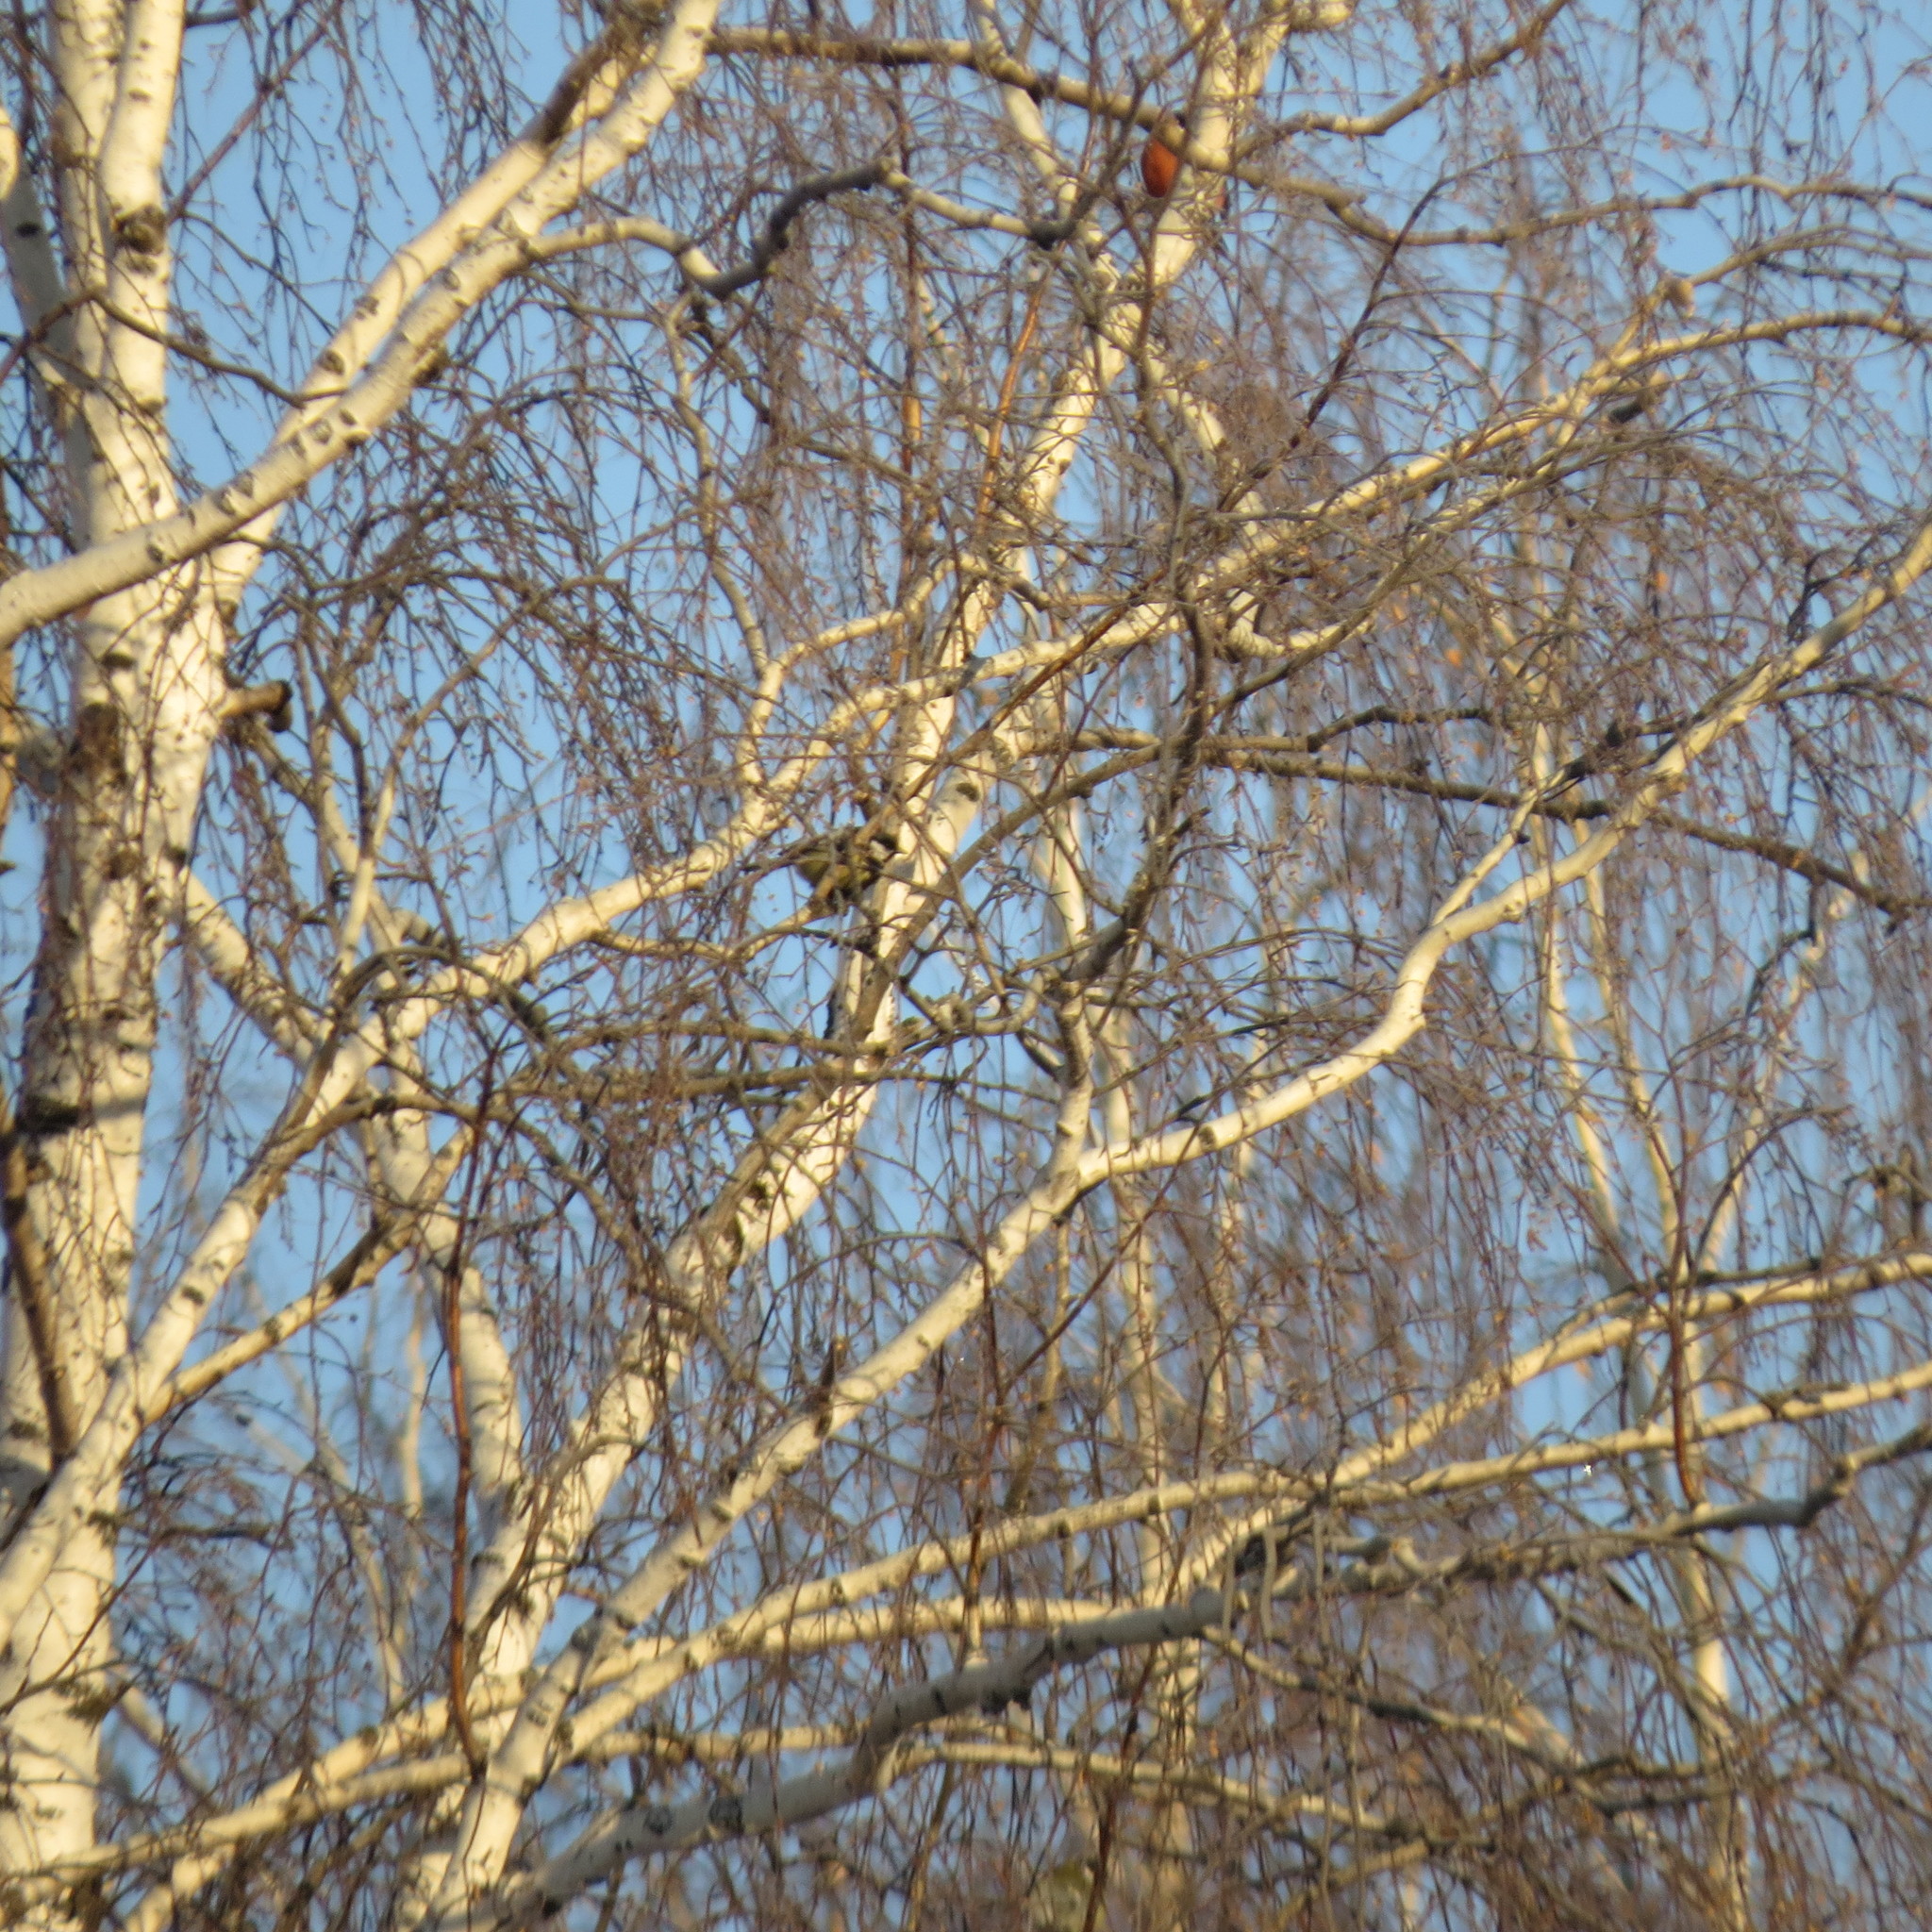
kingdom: Animalia
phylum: Chordata
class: Aves
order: Passeriformes
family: Paridae
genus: Parus
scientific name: Parus major
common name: Great tit
